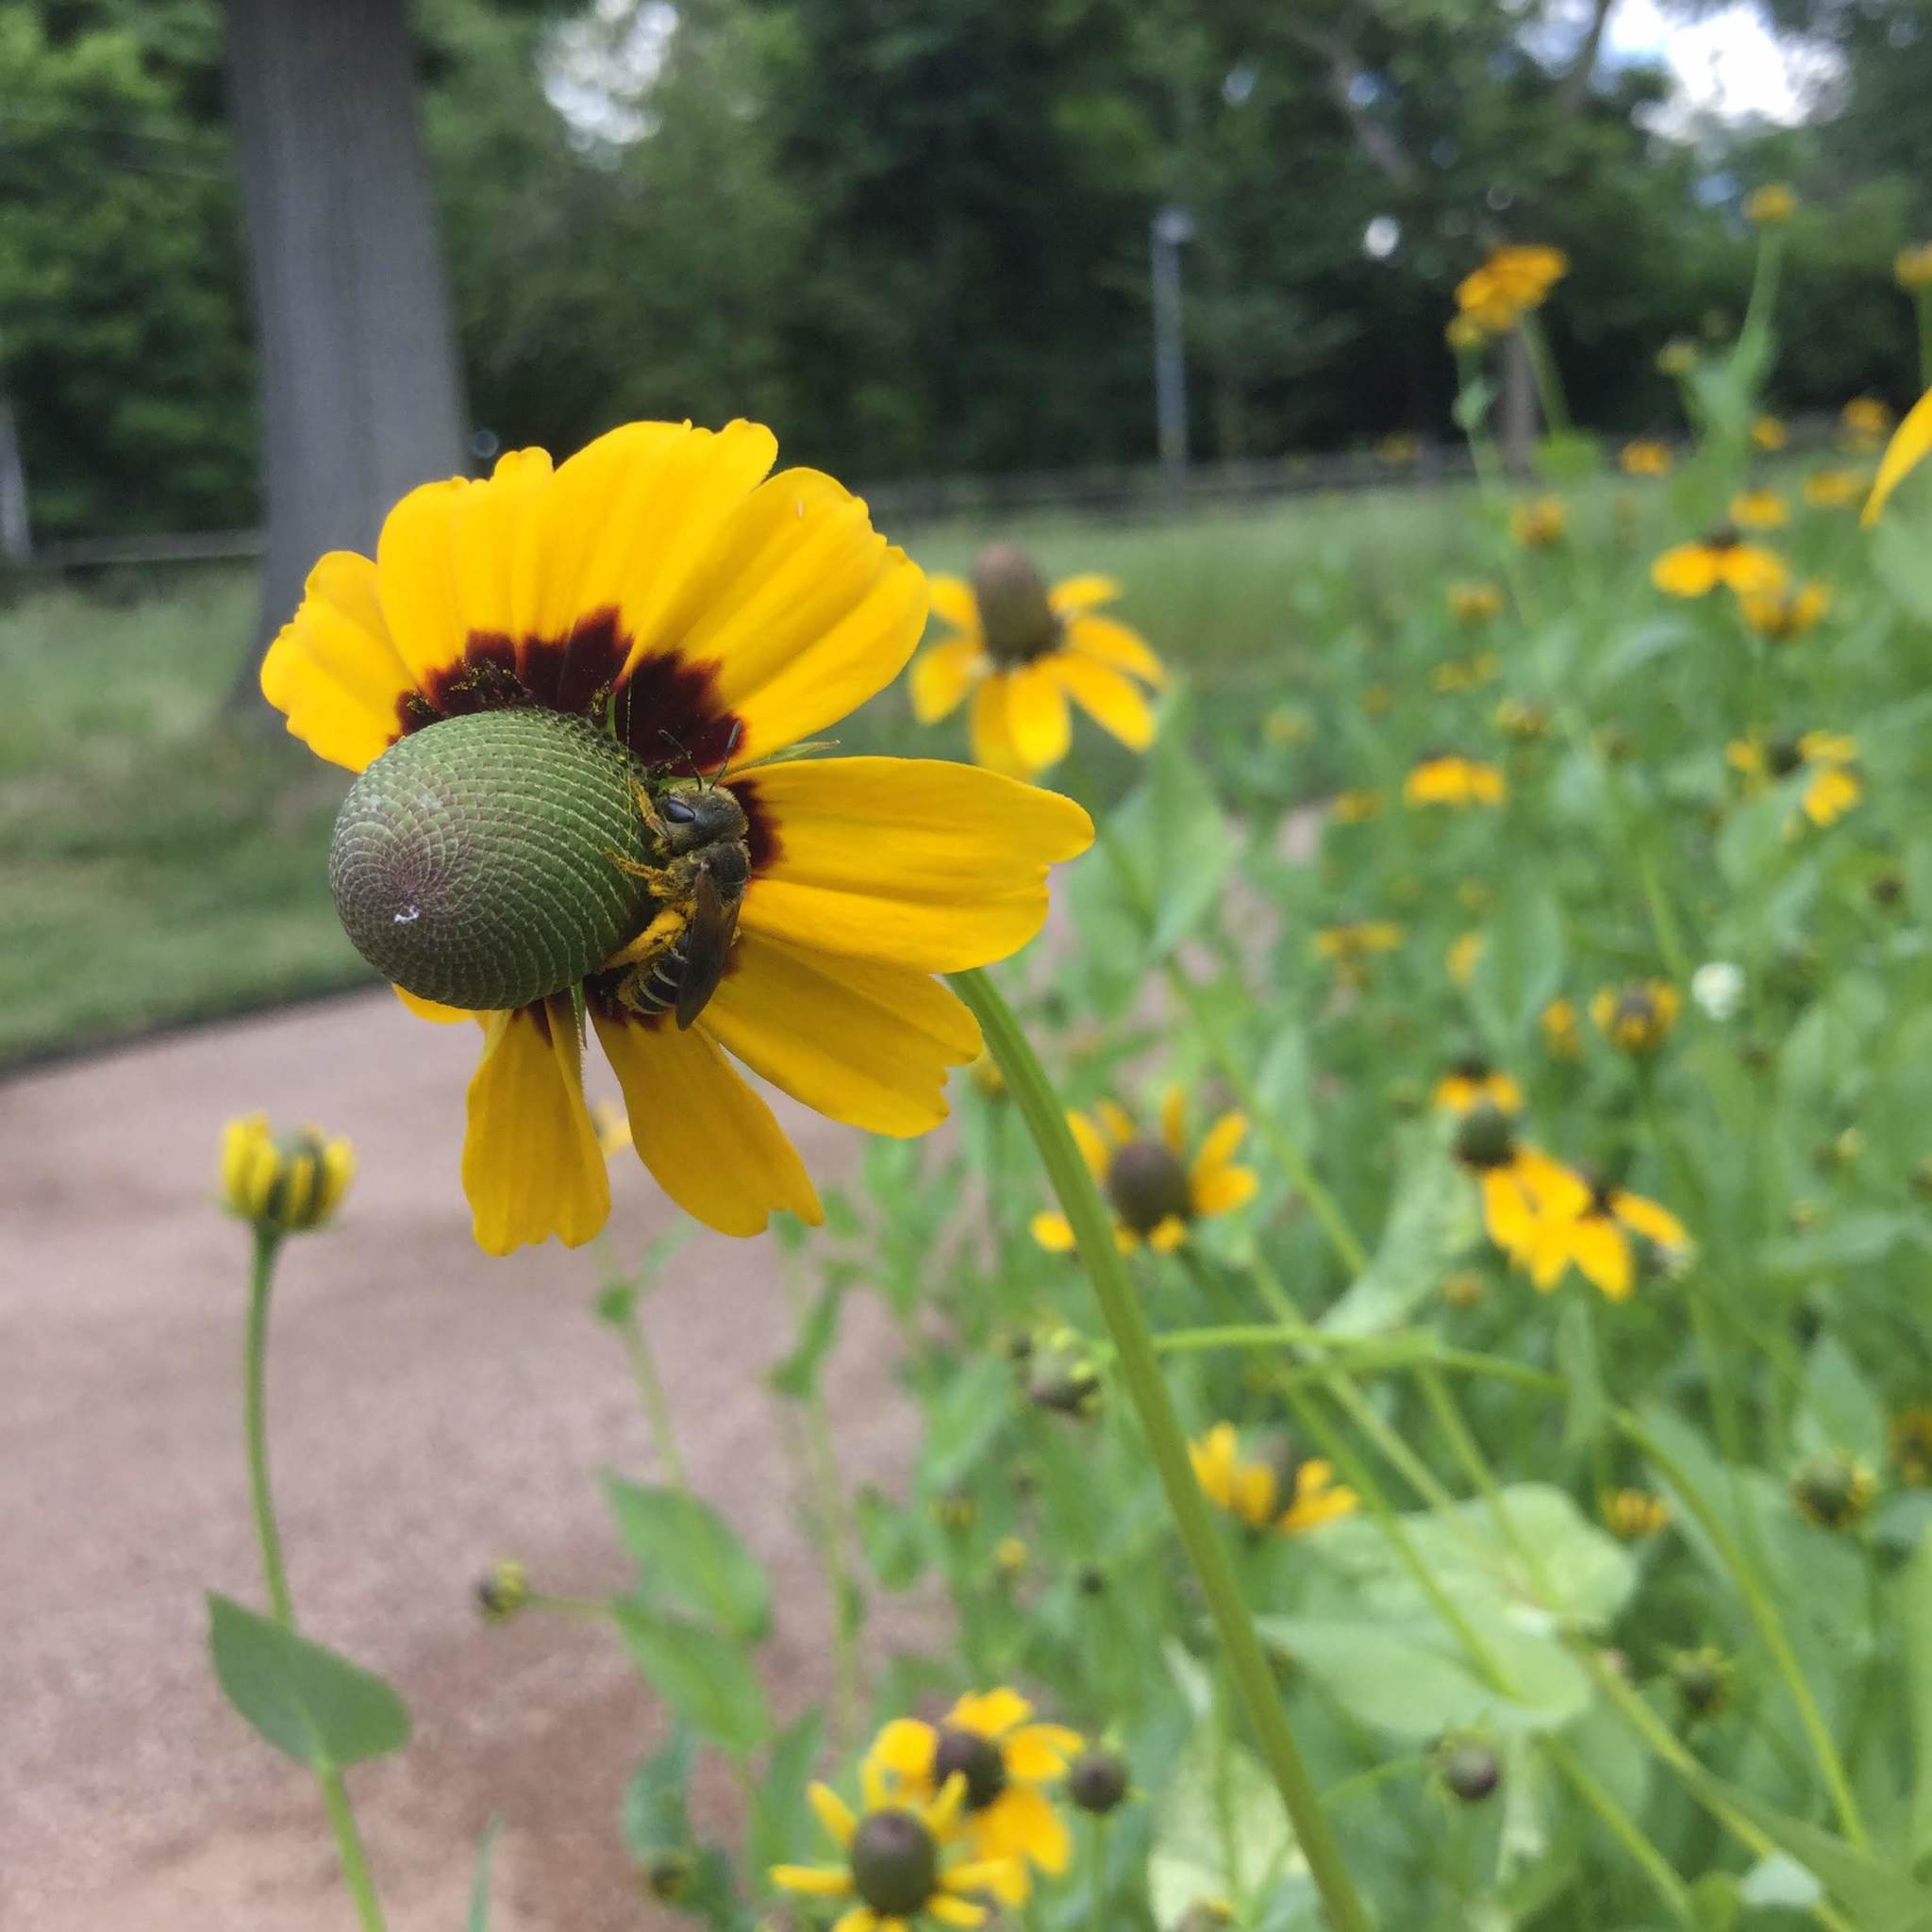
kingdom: Animalia
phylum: Arthropoda
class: Insecta
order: Hymenoptera
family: Halictidae
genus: Halictus
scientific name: Halictus ligatus
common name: Ligated furrow bee
